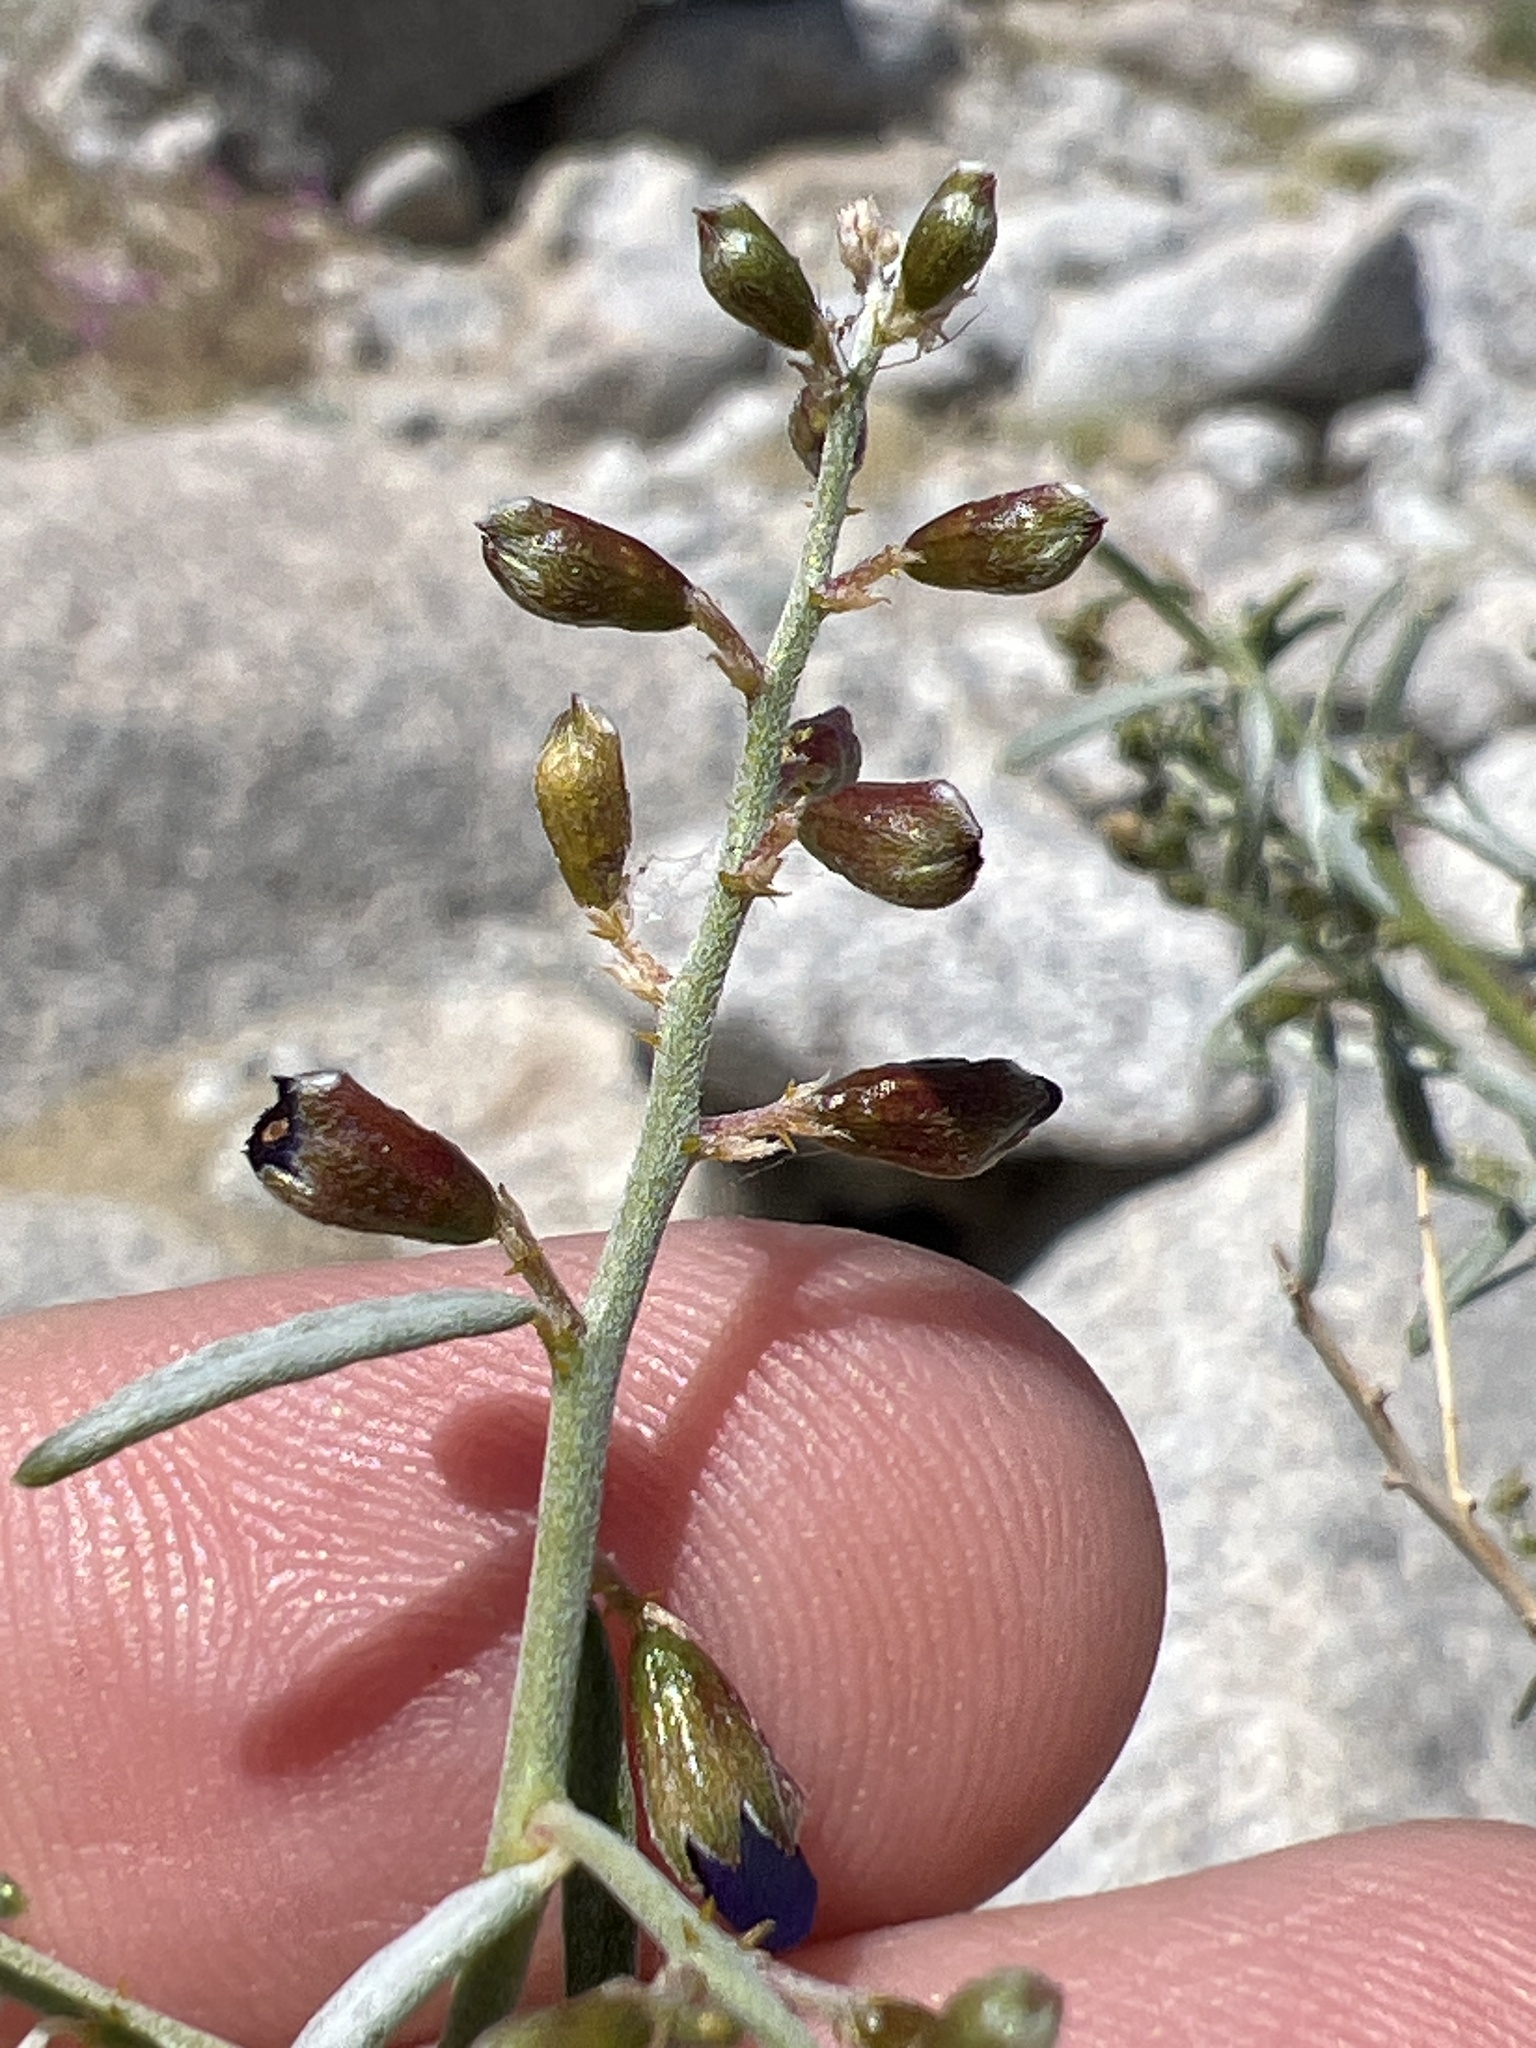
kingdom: Plantae
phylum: Tracheophyta
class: Magnoliopsida
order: Fabales
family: Fabaceae
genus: Psorothamnus
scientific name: Psorothamnus schottii
